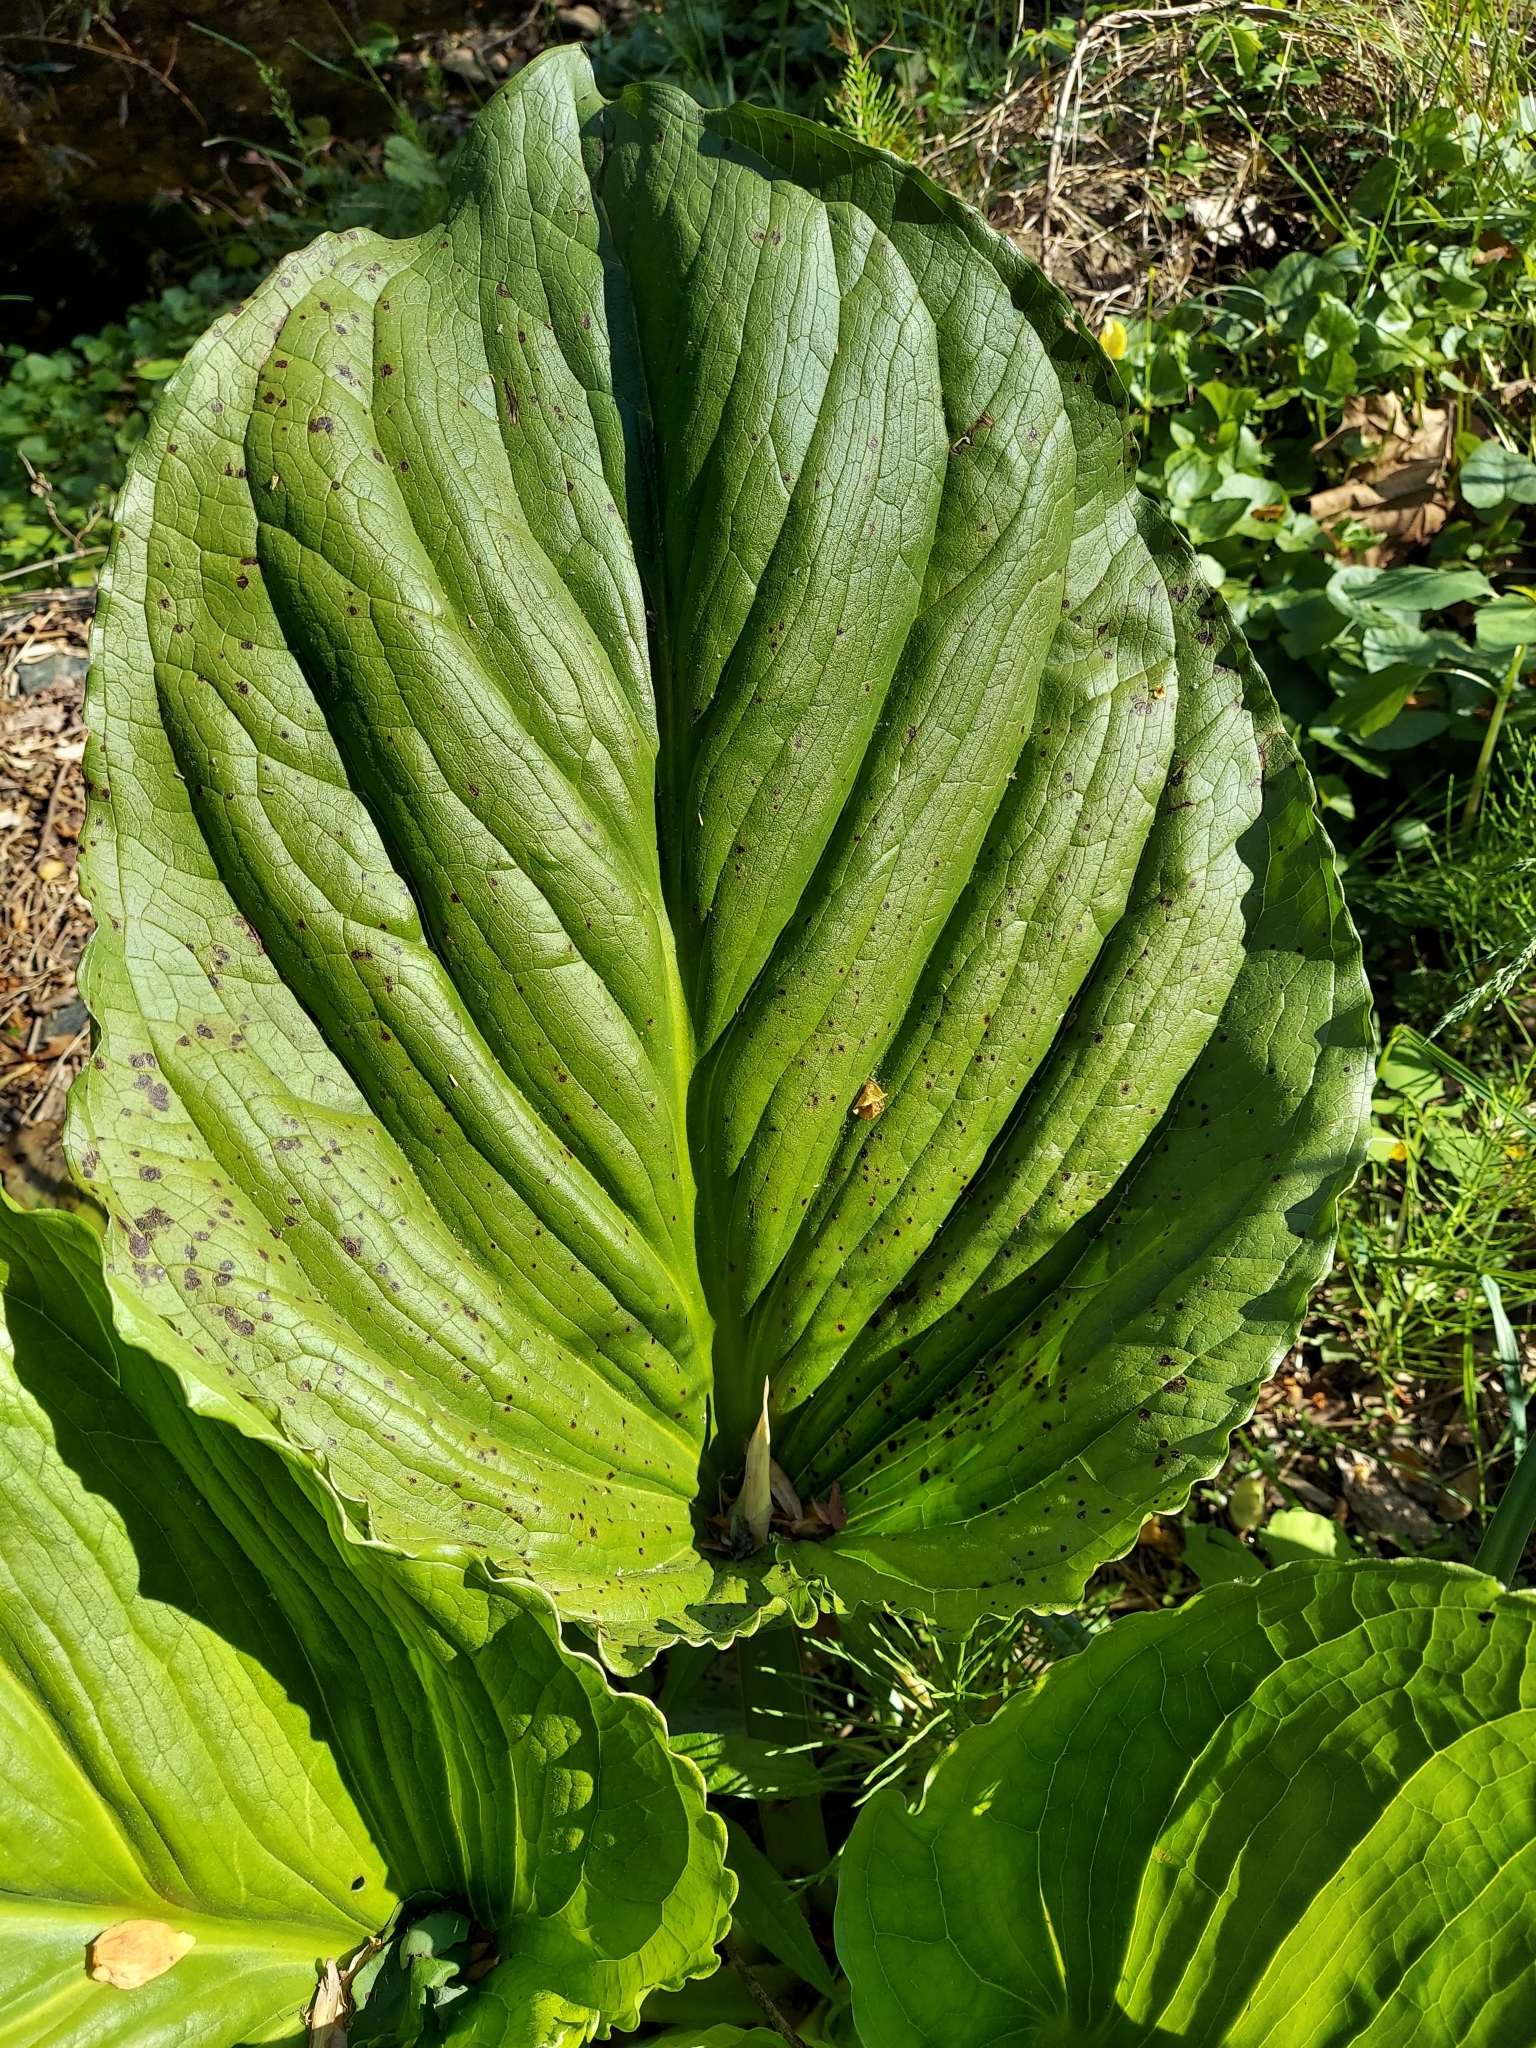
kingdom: Plantae
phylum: Tracheophyta
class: Liliopsida
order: Alismatales
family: Araceae
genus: Symplocarpus
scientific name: Symplocarpus foetidus
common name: Eastern skunk cabbage
